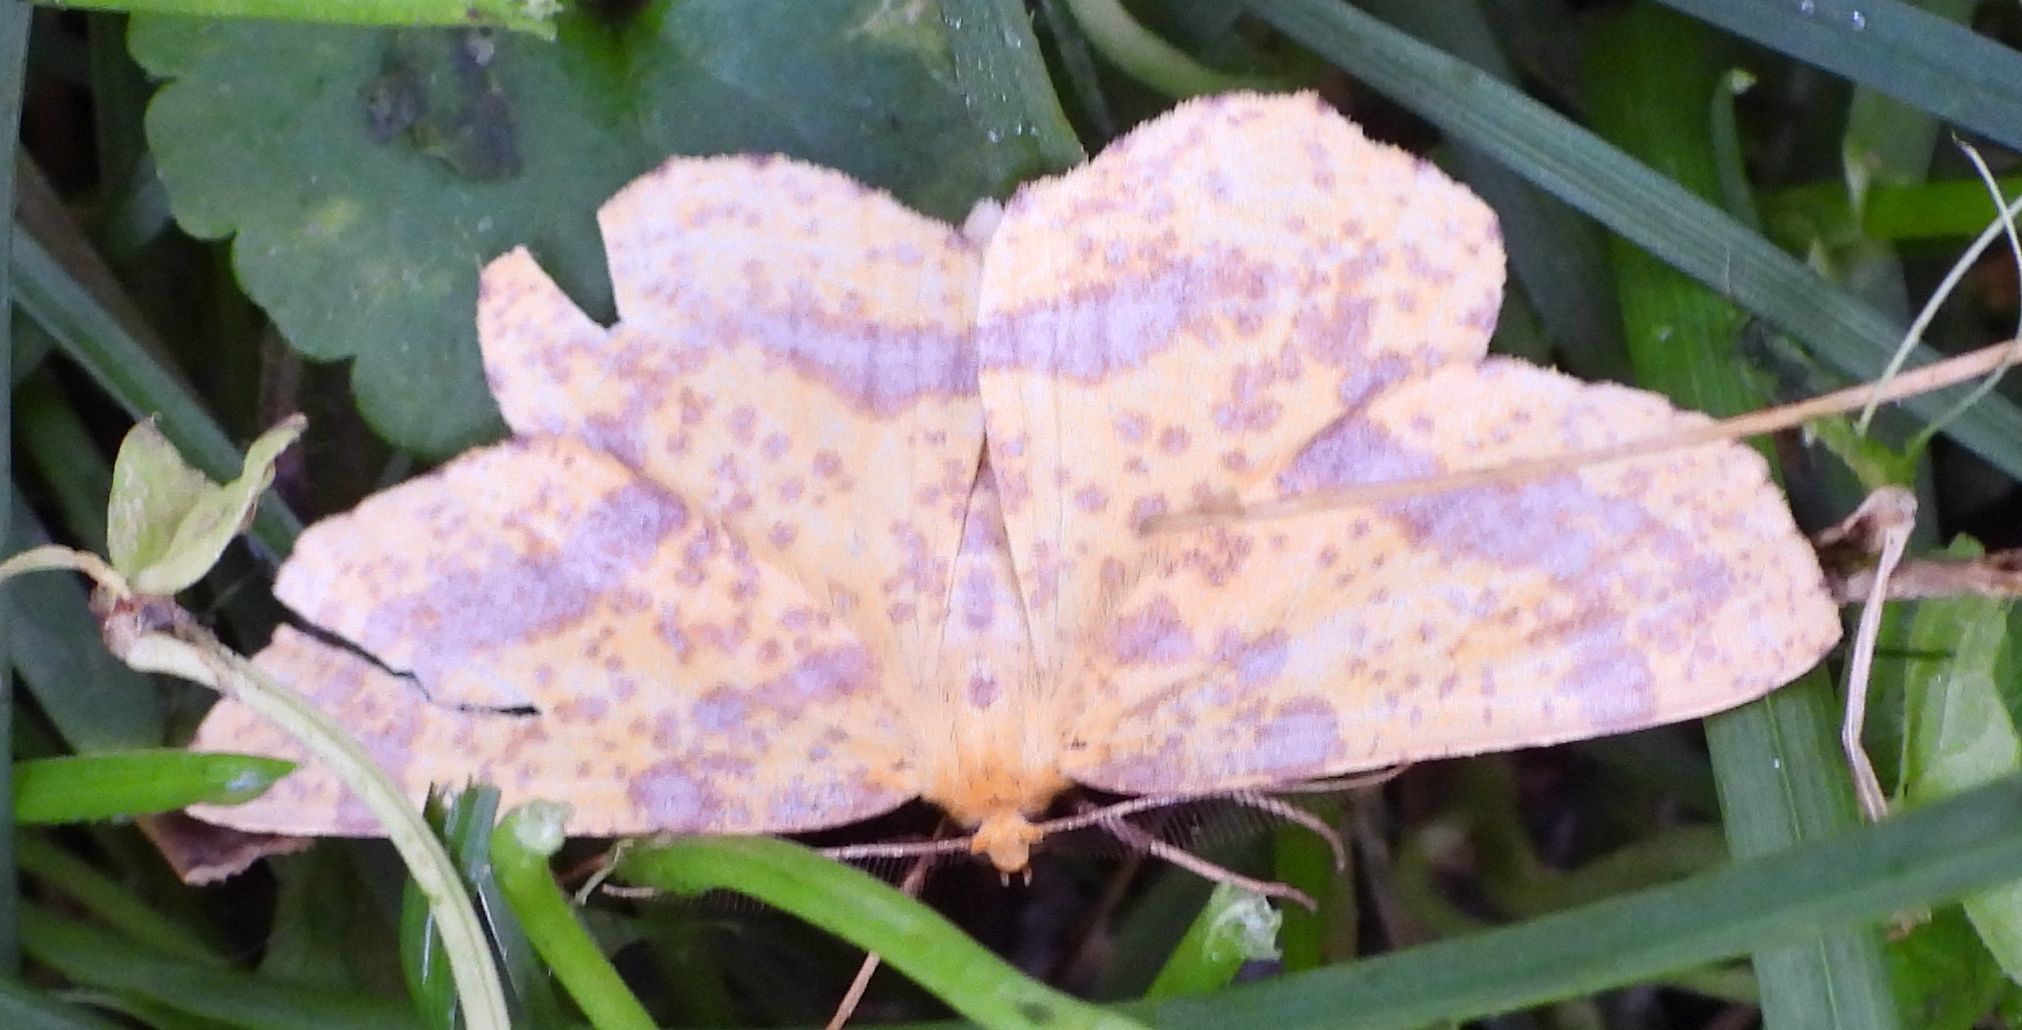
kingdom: Animalia
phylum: Arthropoda
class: Insecta
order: Lepidoptera
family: Geometridae
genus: Xanthotype
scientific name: Xanthotype
